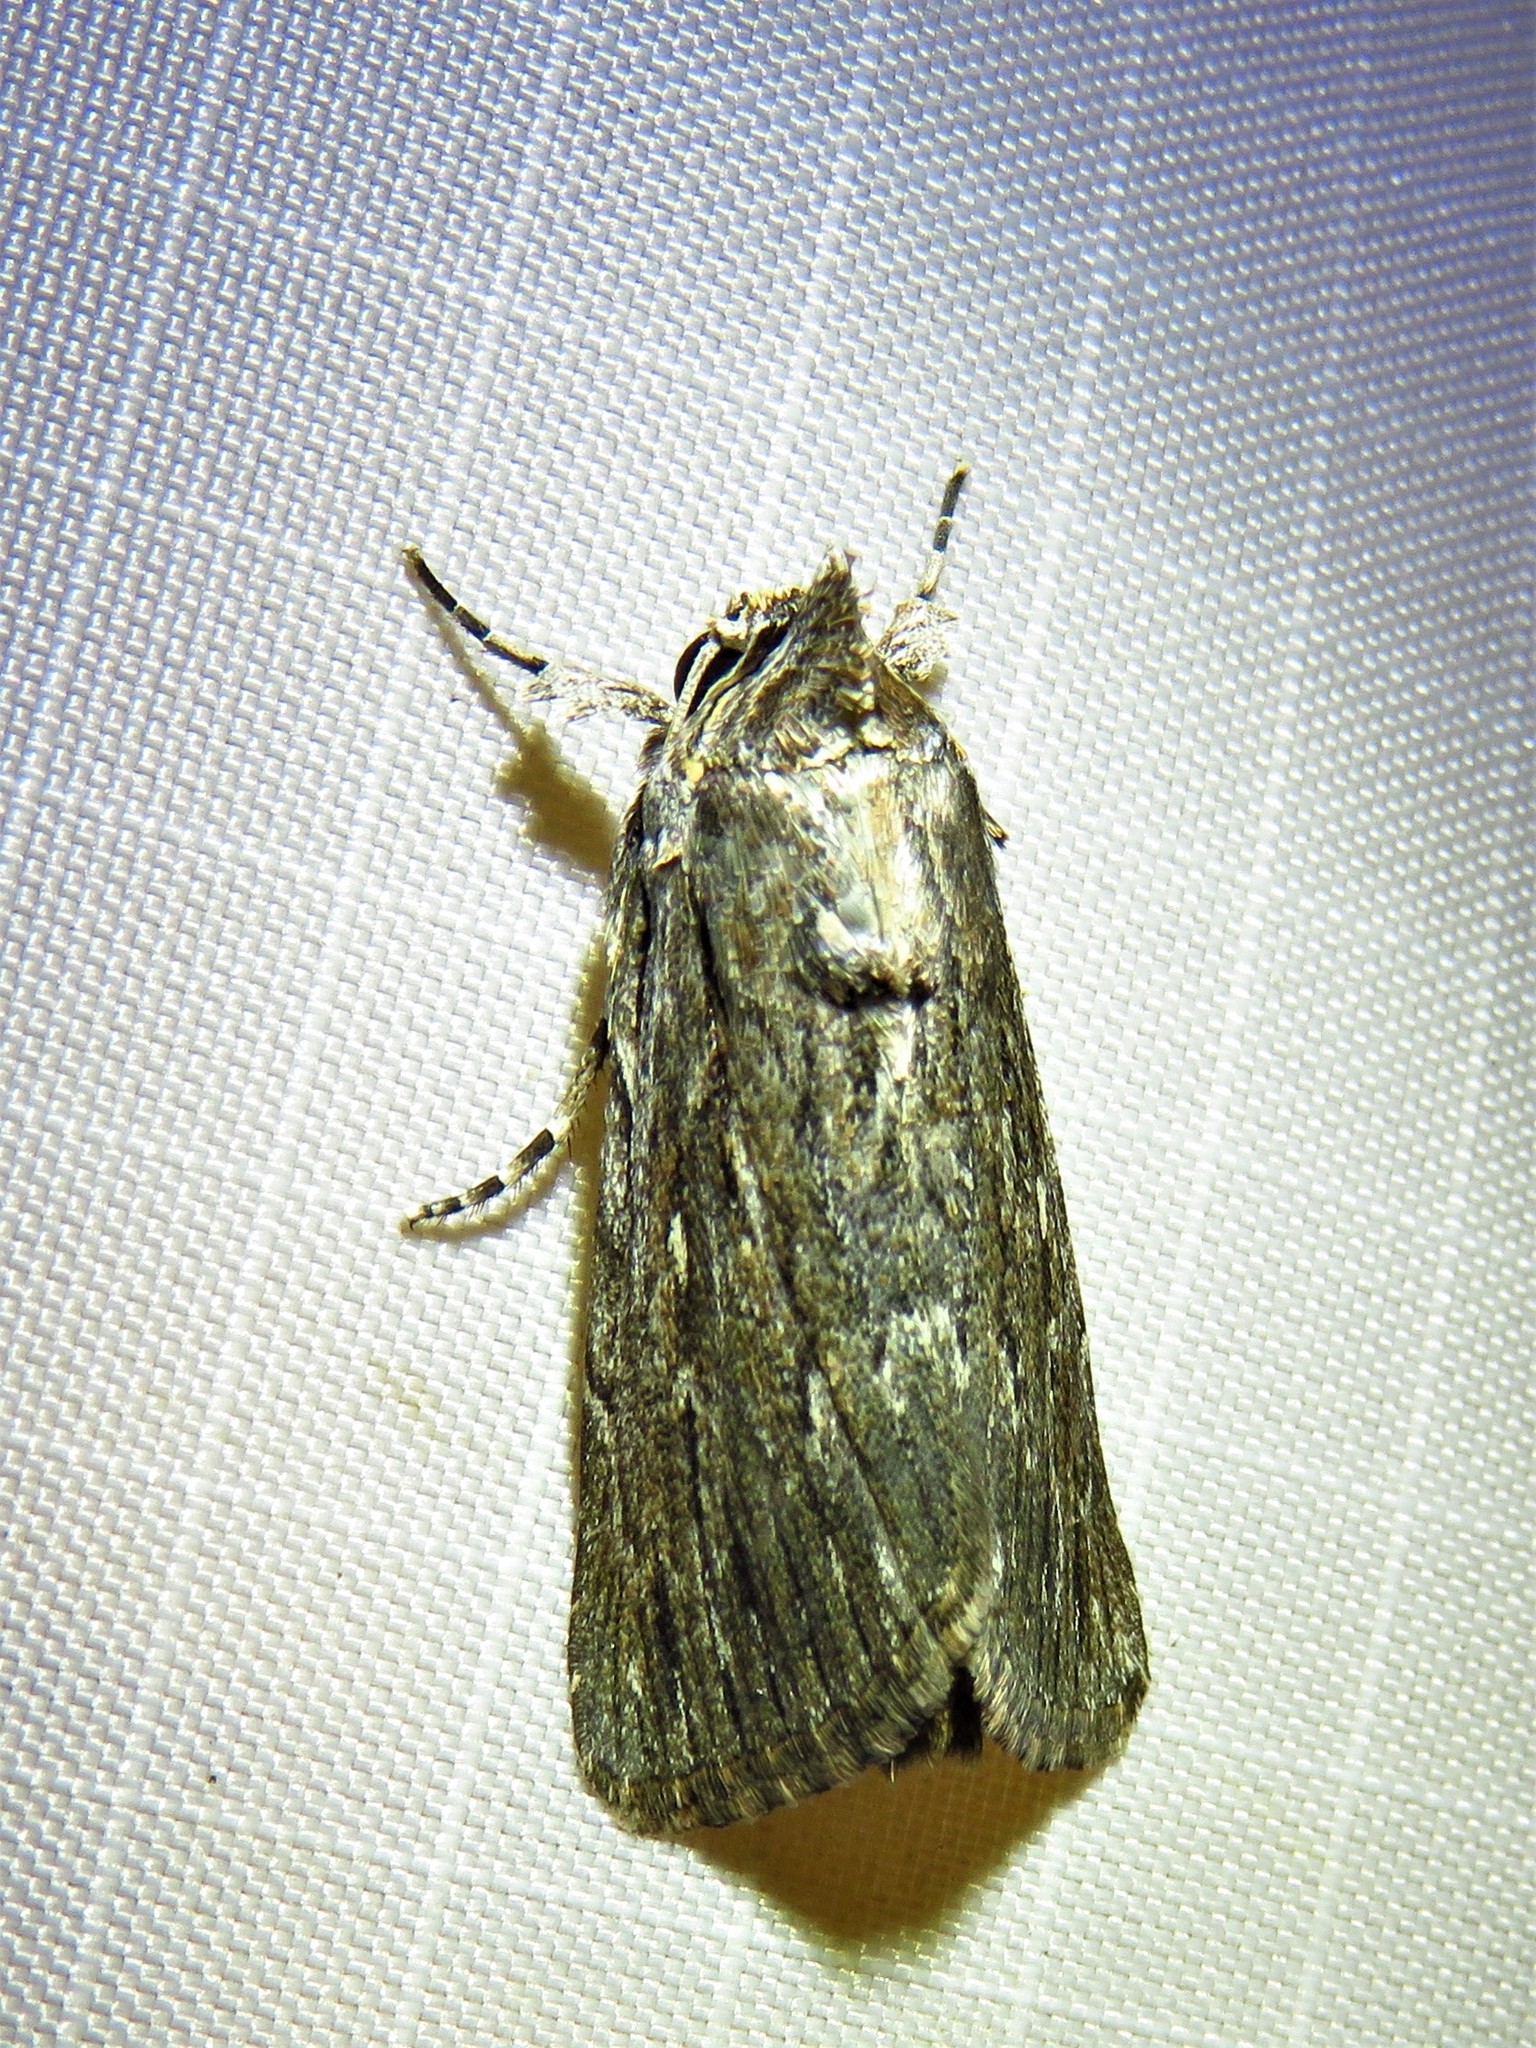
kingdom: Animalia
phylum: Arthropoda
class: Insecta
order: Lepidoptera
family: Noctuidae
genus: Neogalea
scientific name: Neogalea sunia
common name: Lantana stick caterpillar
